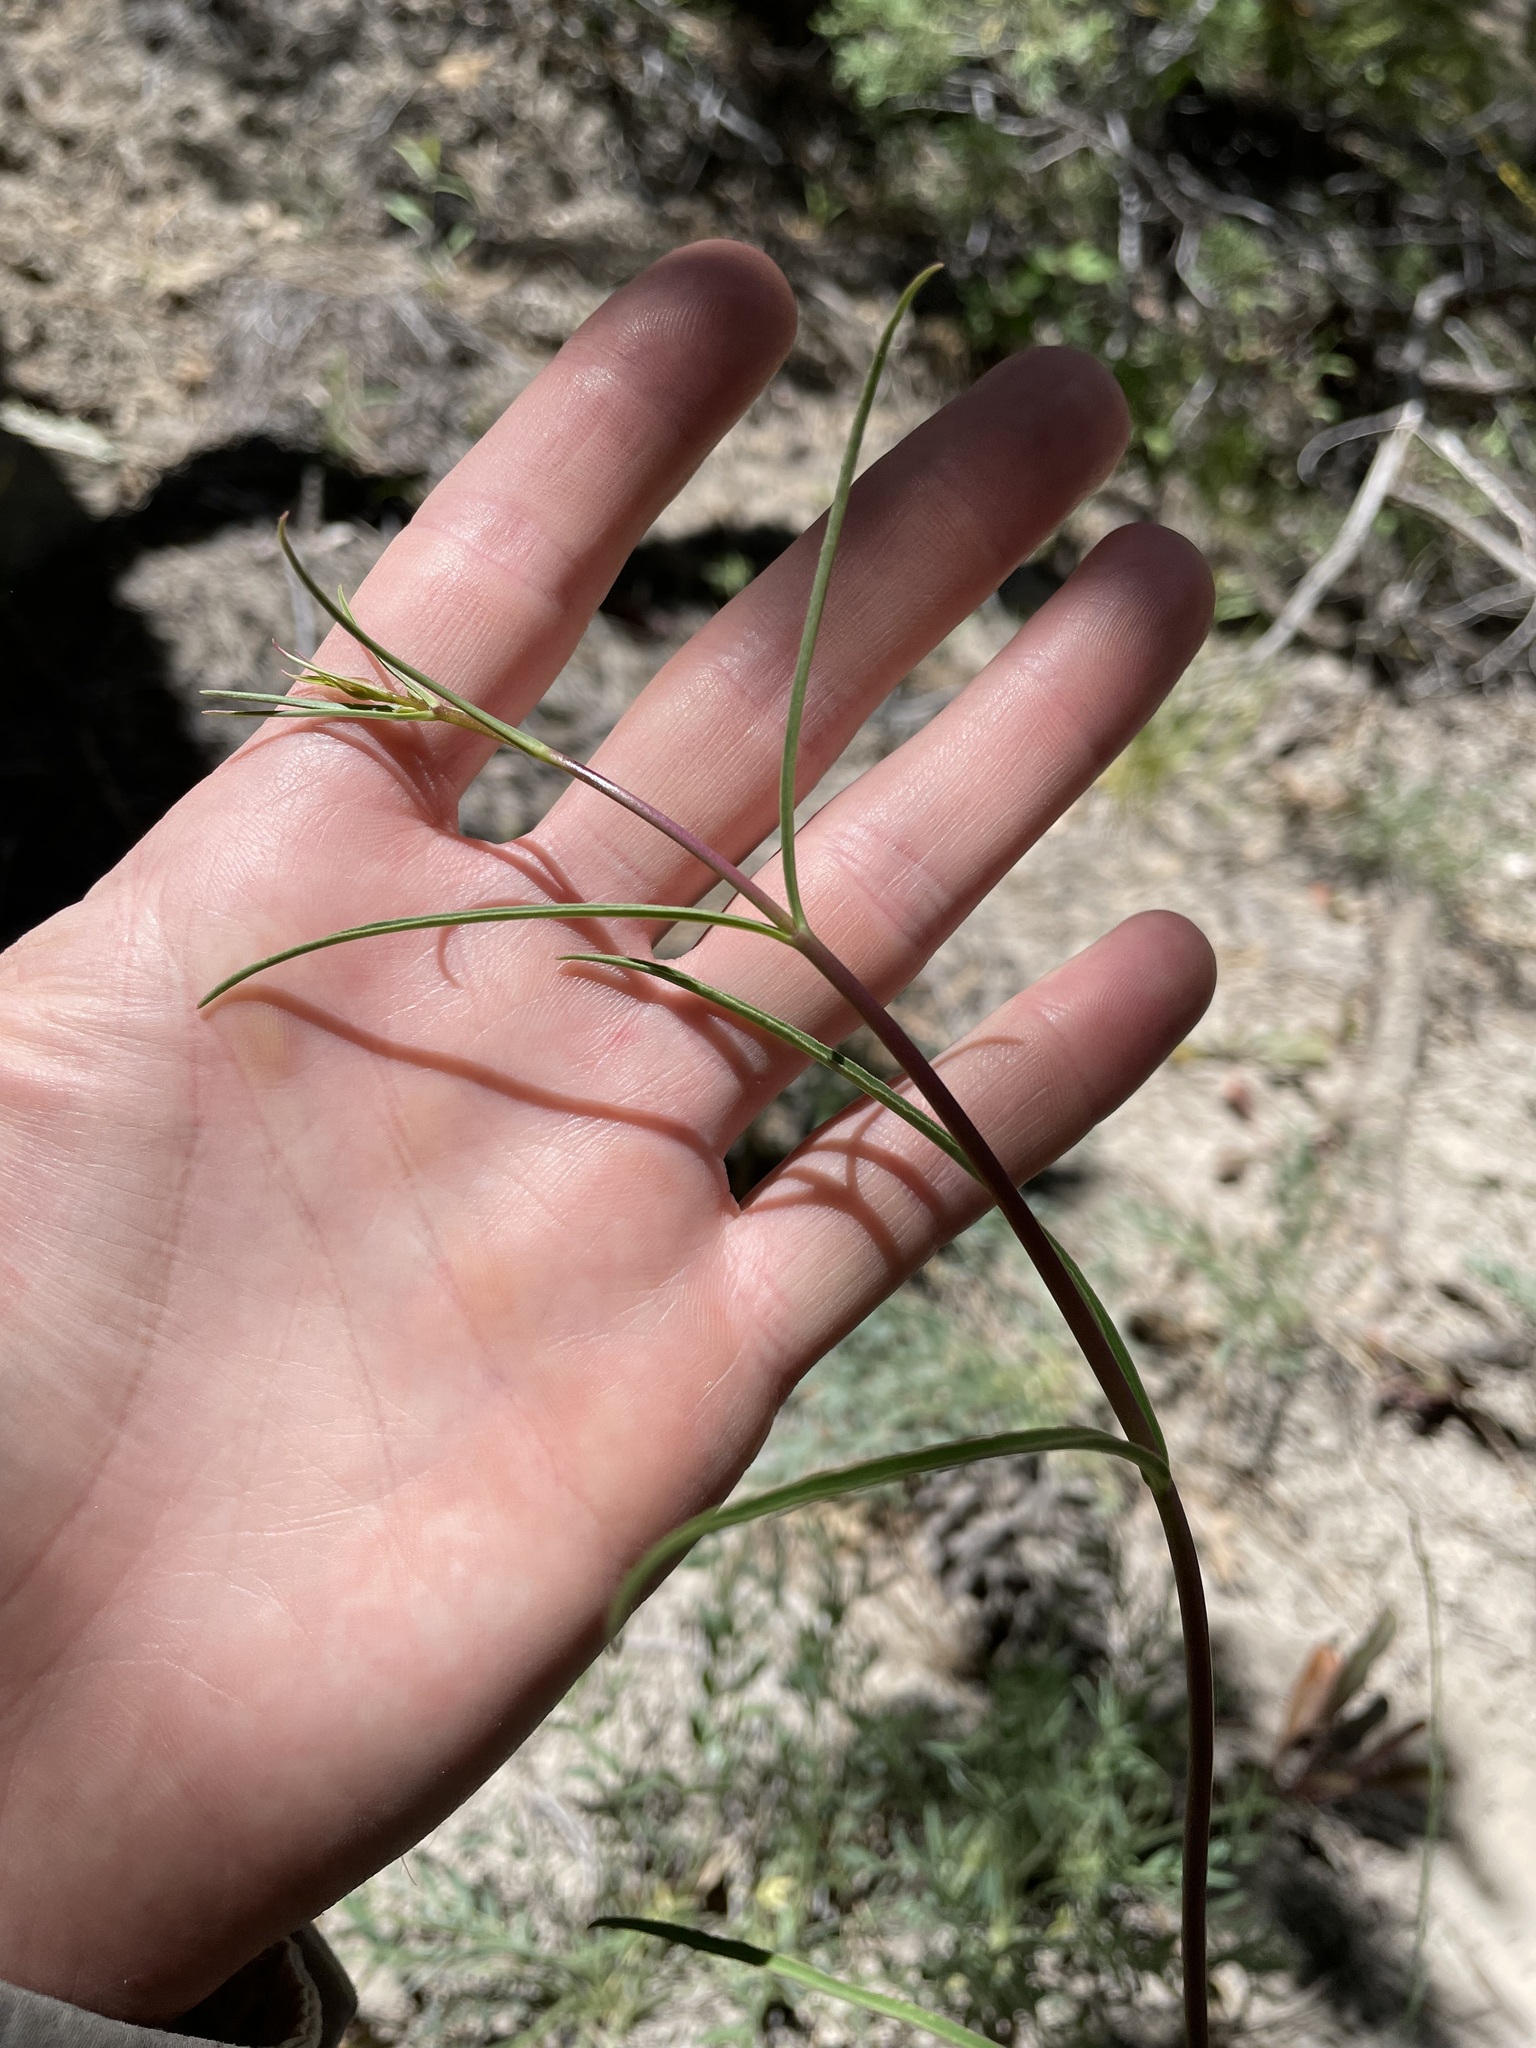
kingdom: Plantae
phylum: Tracheophyta
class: Magnoliopsida
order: Lamiales
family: Plantaginaceae
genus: Penstemon
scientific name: Penstemon barbatus
